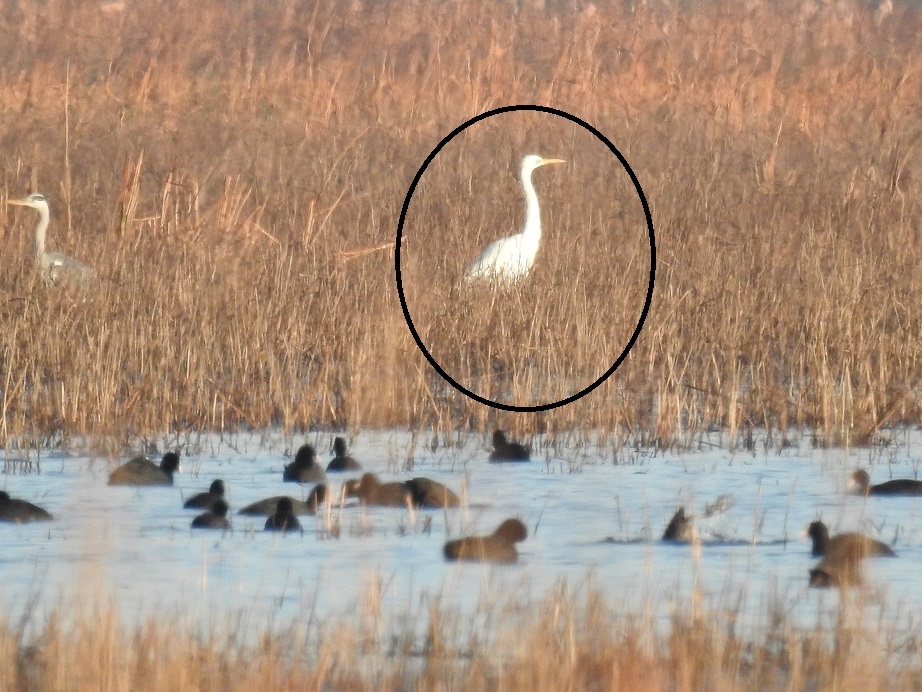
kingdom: Animalia
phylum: Chordata
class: Aves
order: Pelecaniformes
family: Ardeidae
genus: Ardea
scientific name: Ardea alba
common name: Great egret
